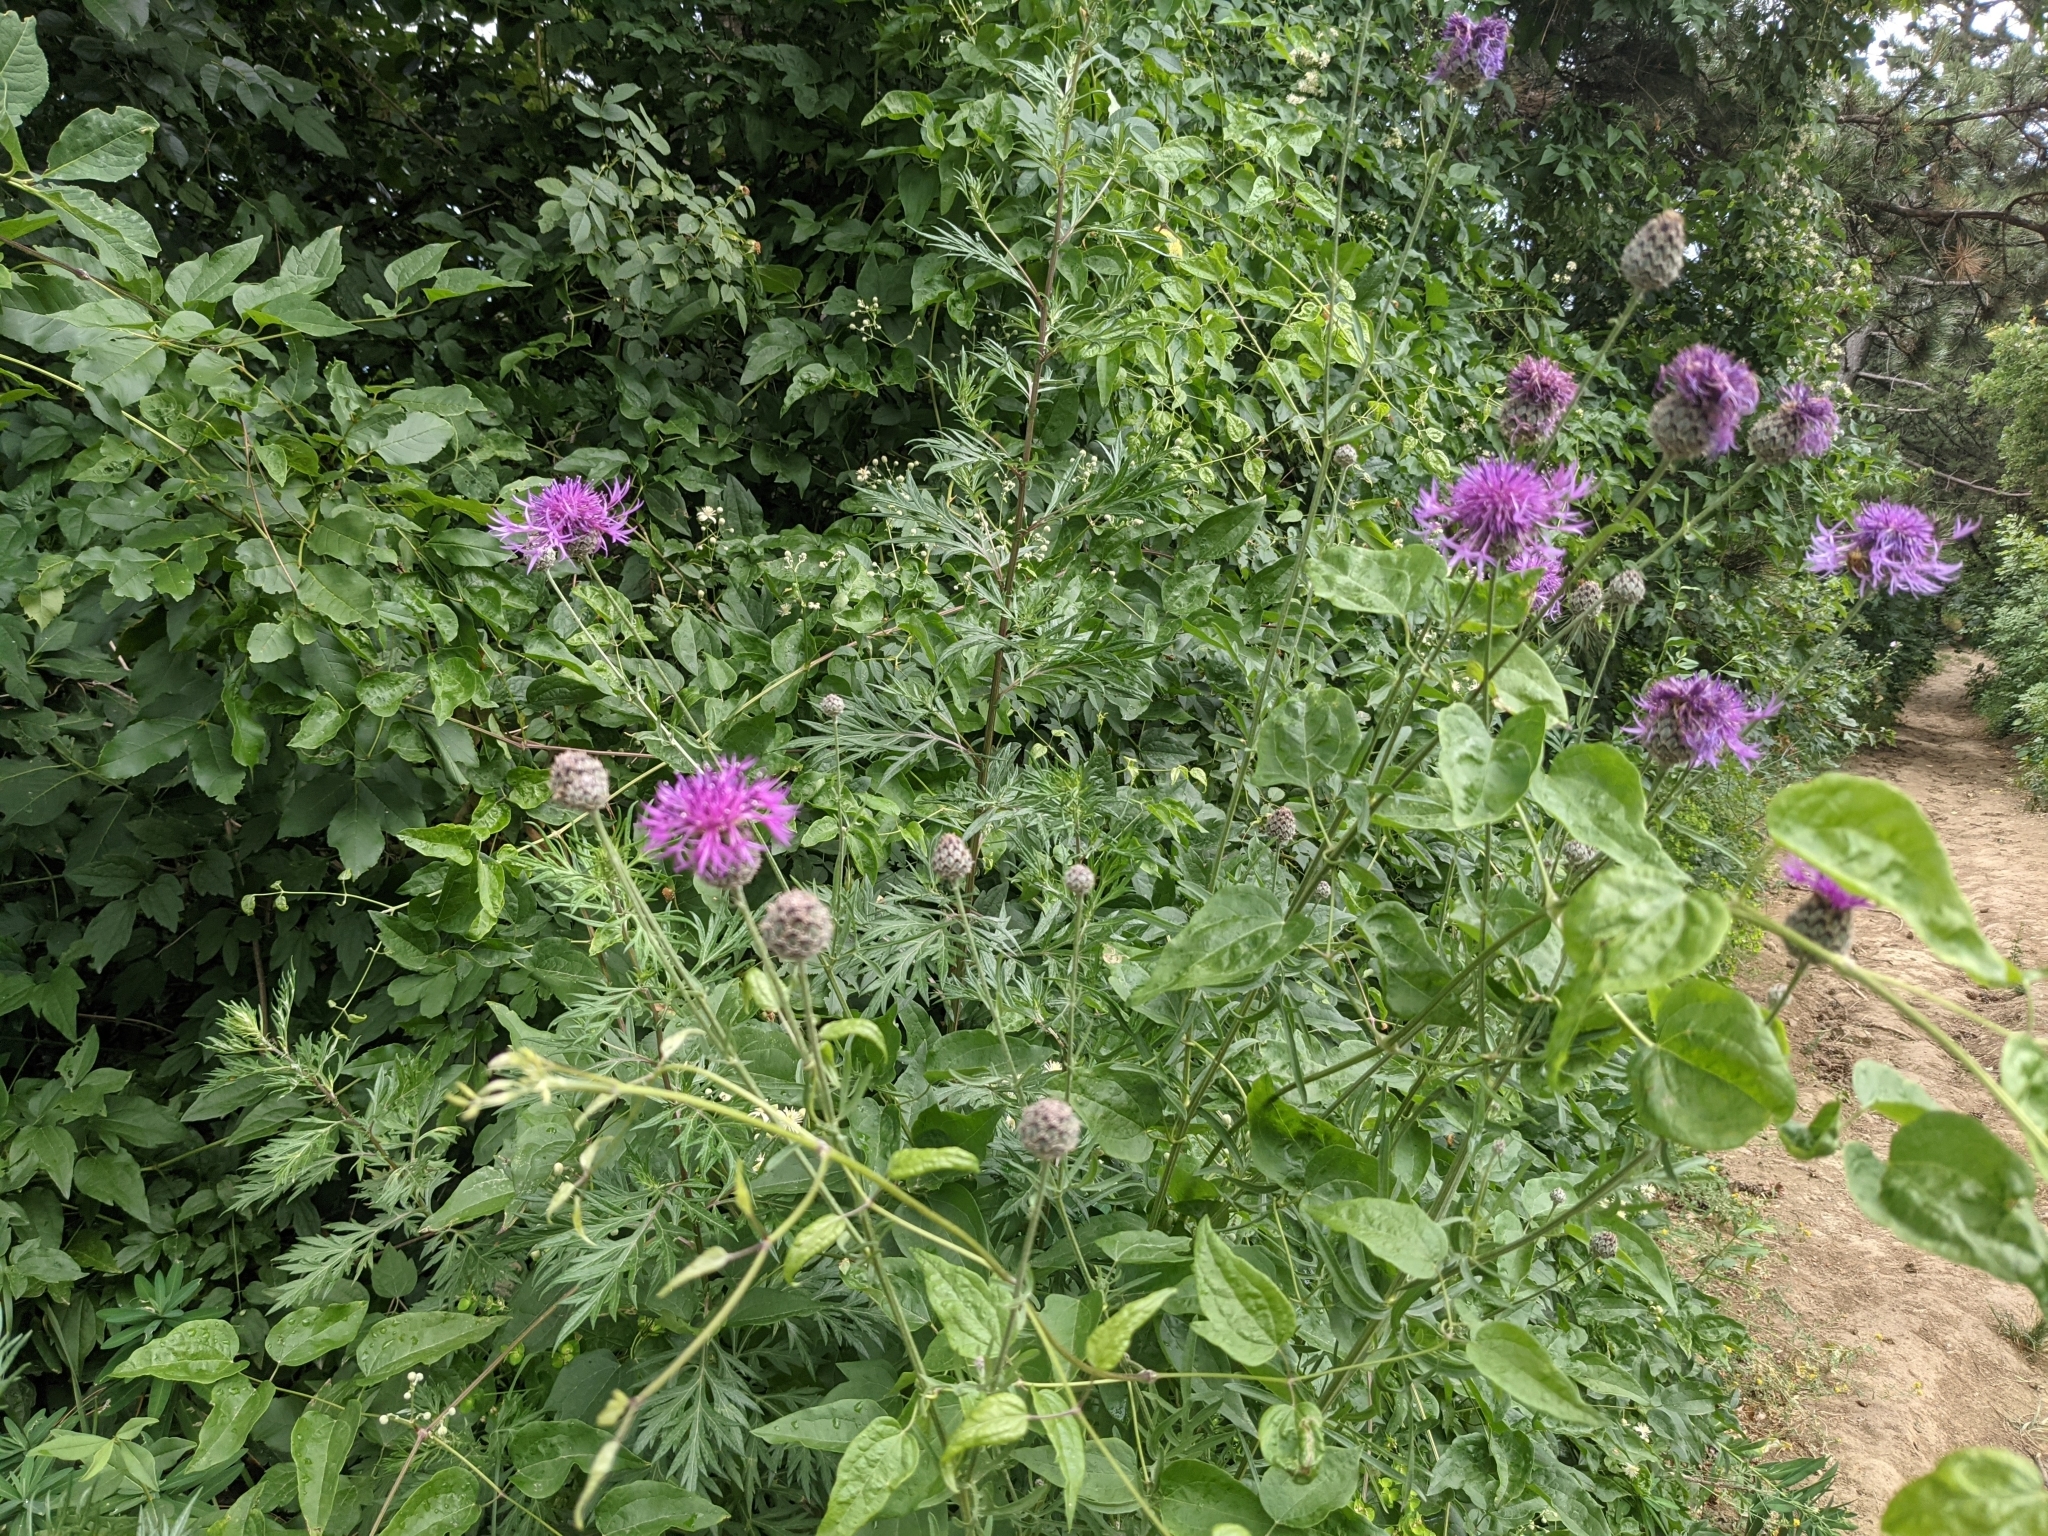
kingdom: Plantae
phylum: Tracheophyta
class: Magnoliopsida
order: Asterales
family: Asteraceae
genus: Centaurea
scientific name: Centaurea scabiosa
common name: Greater knapweed
